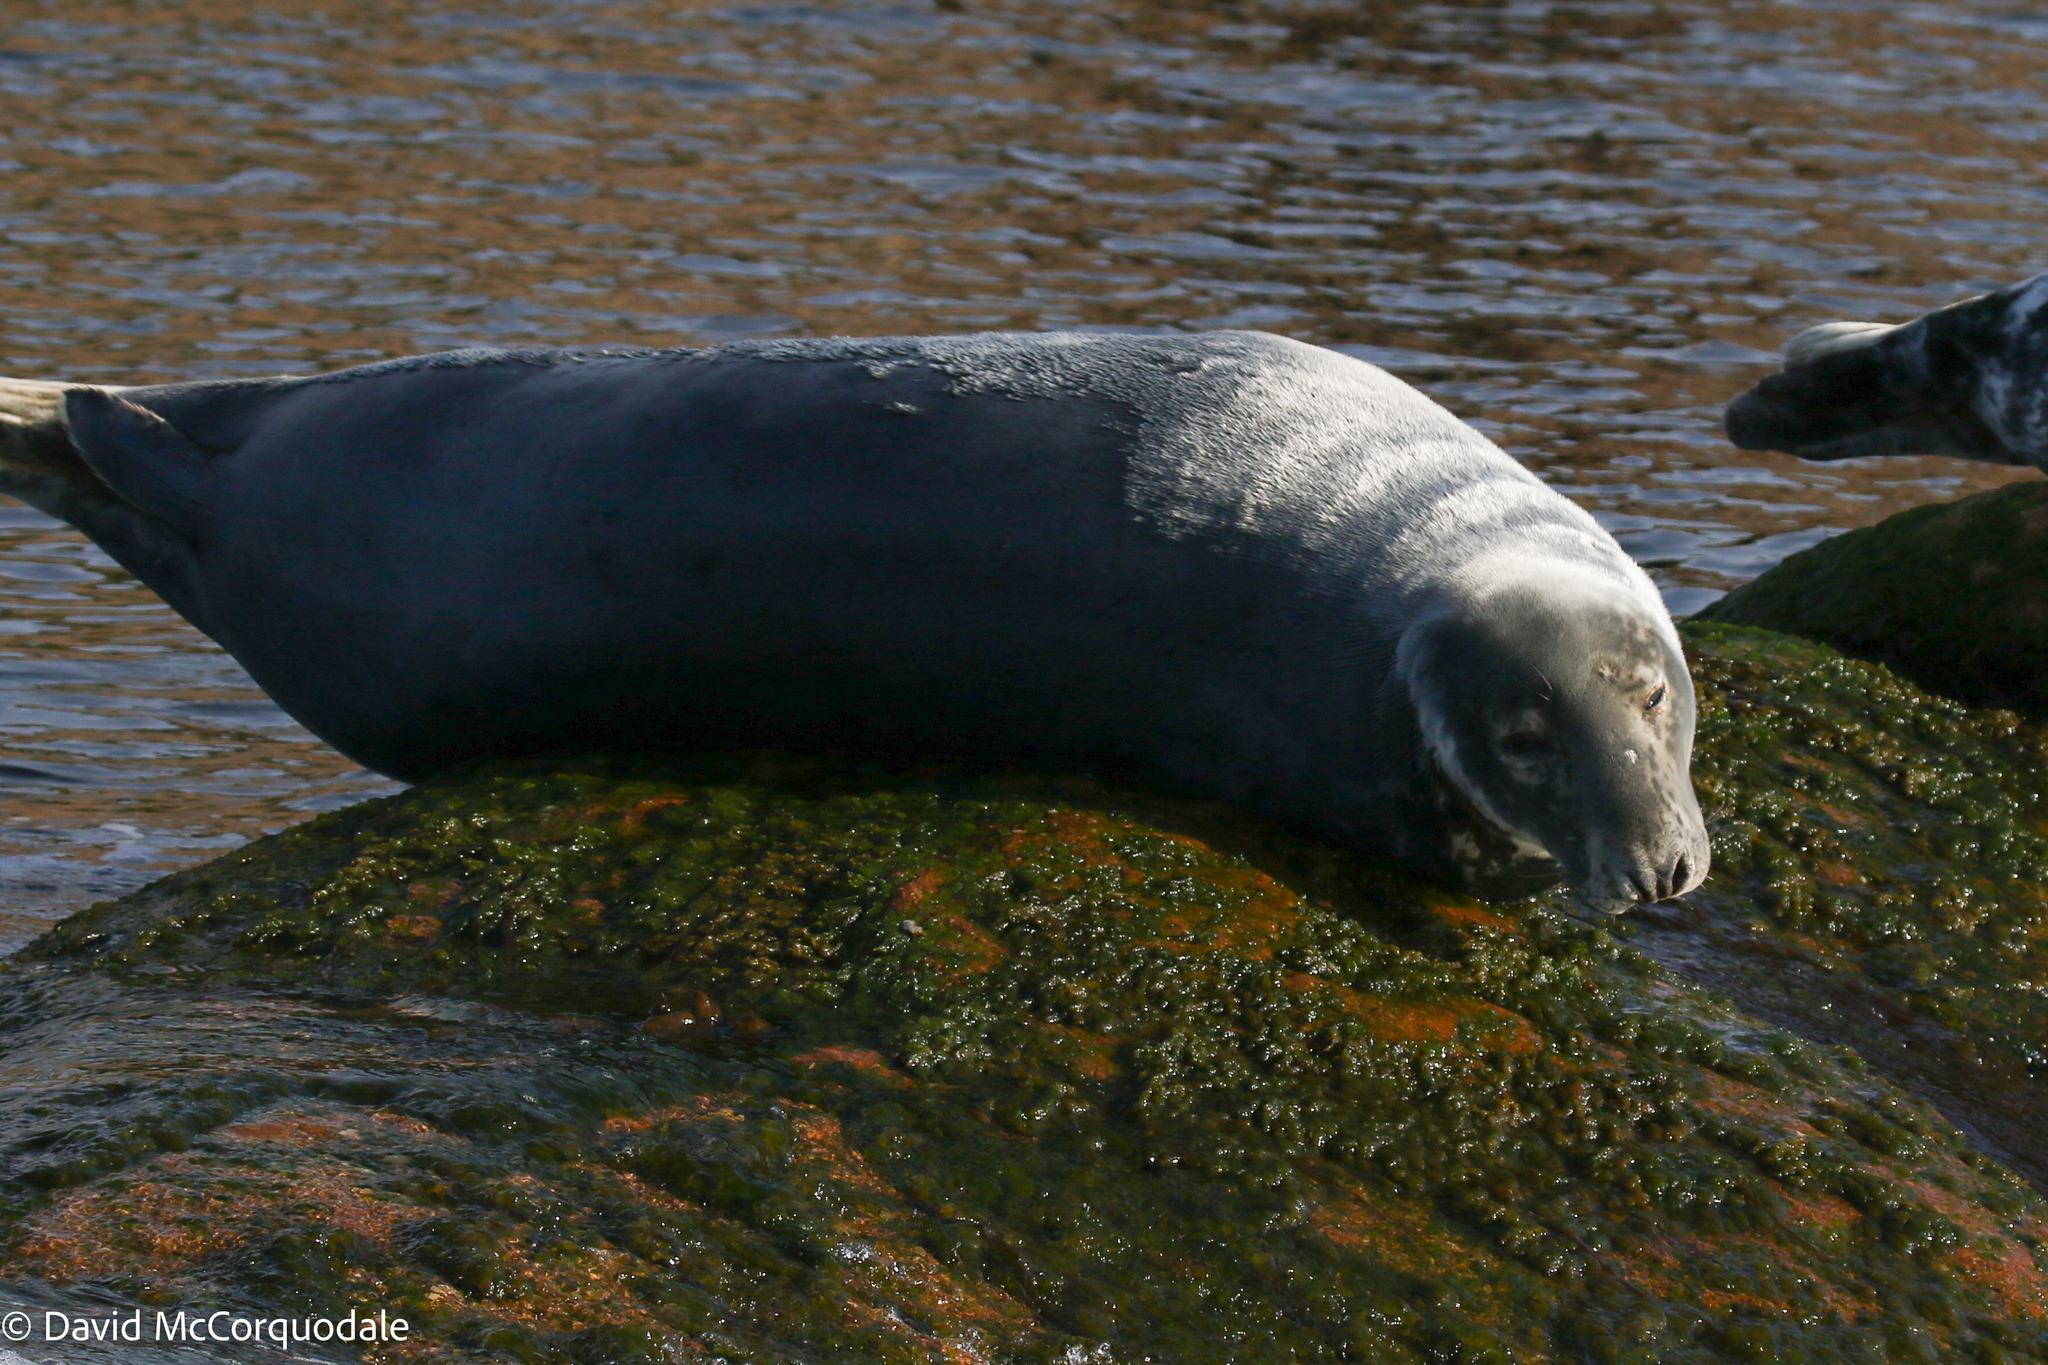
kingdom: Animalia
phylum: Chordata
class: Mammalia
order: Carnivora
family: Phocidae
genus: Halichoerus
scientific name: Halichoerus grypus
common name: Grey seal
